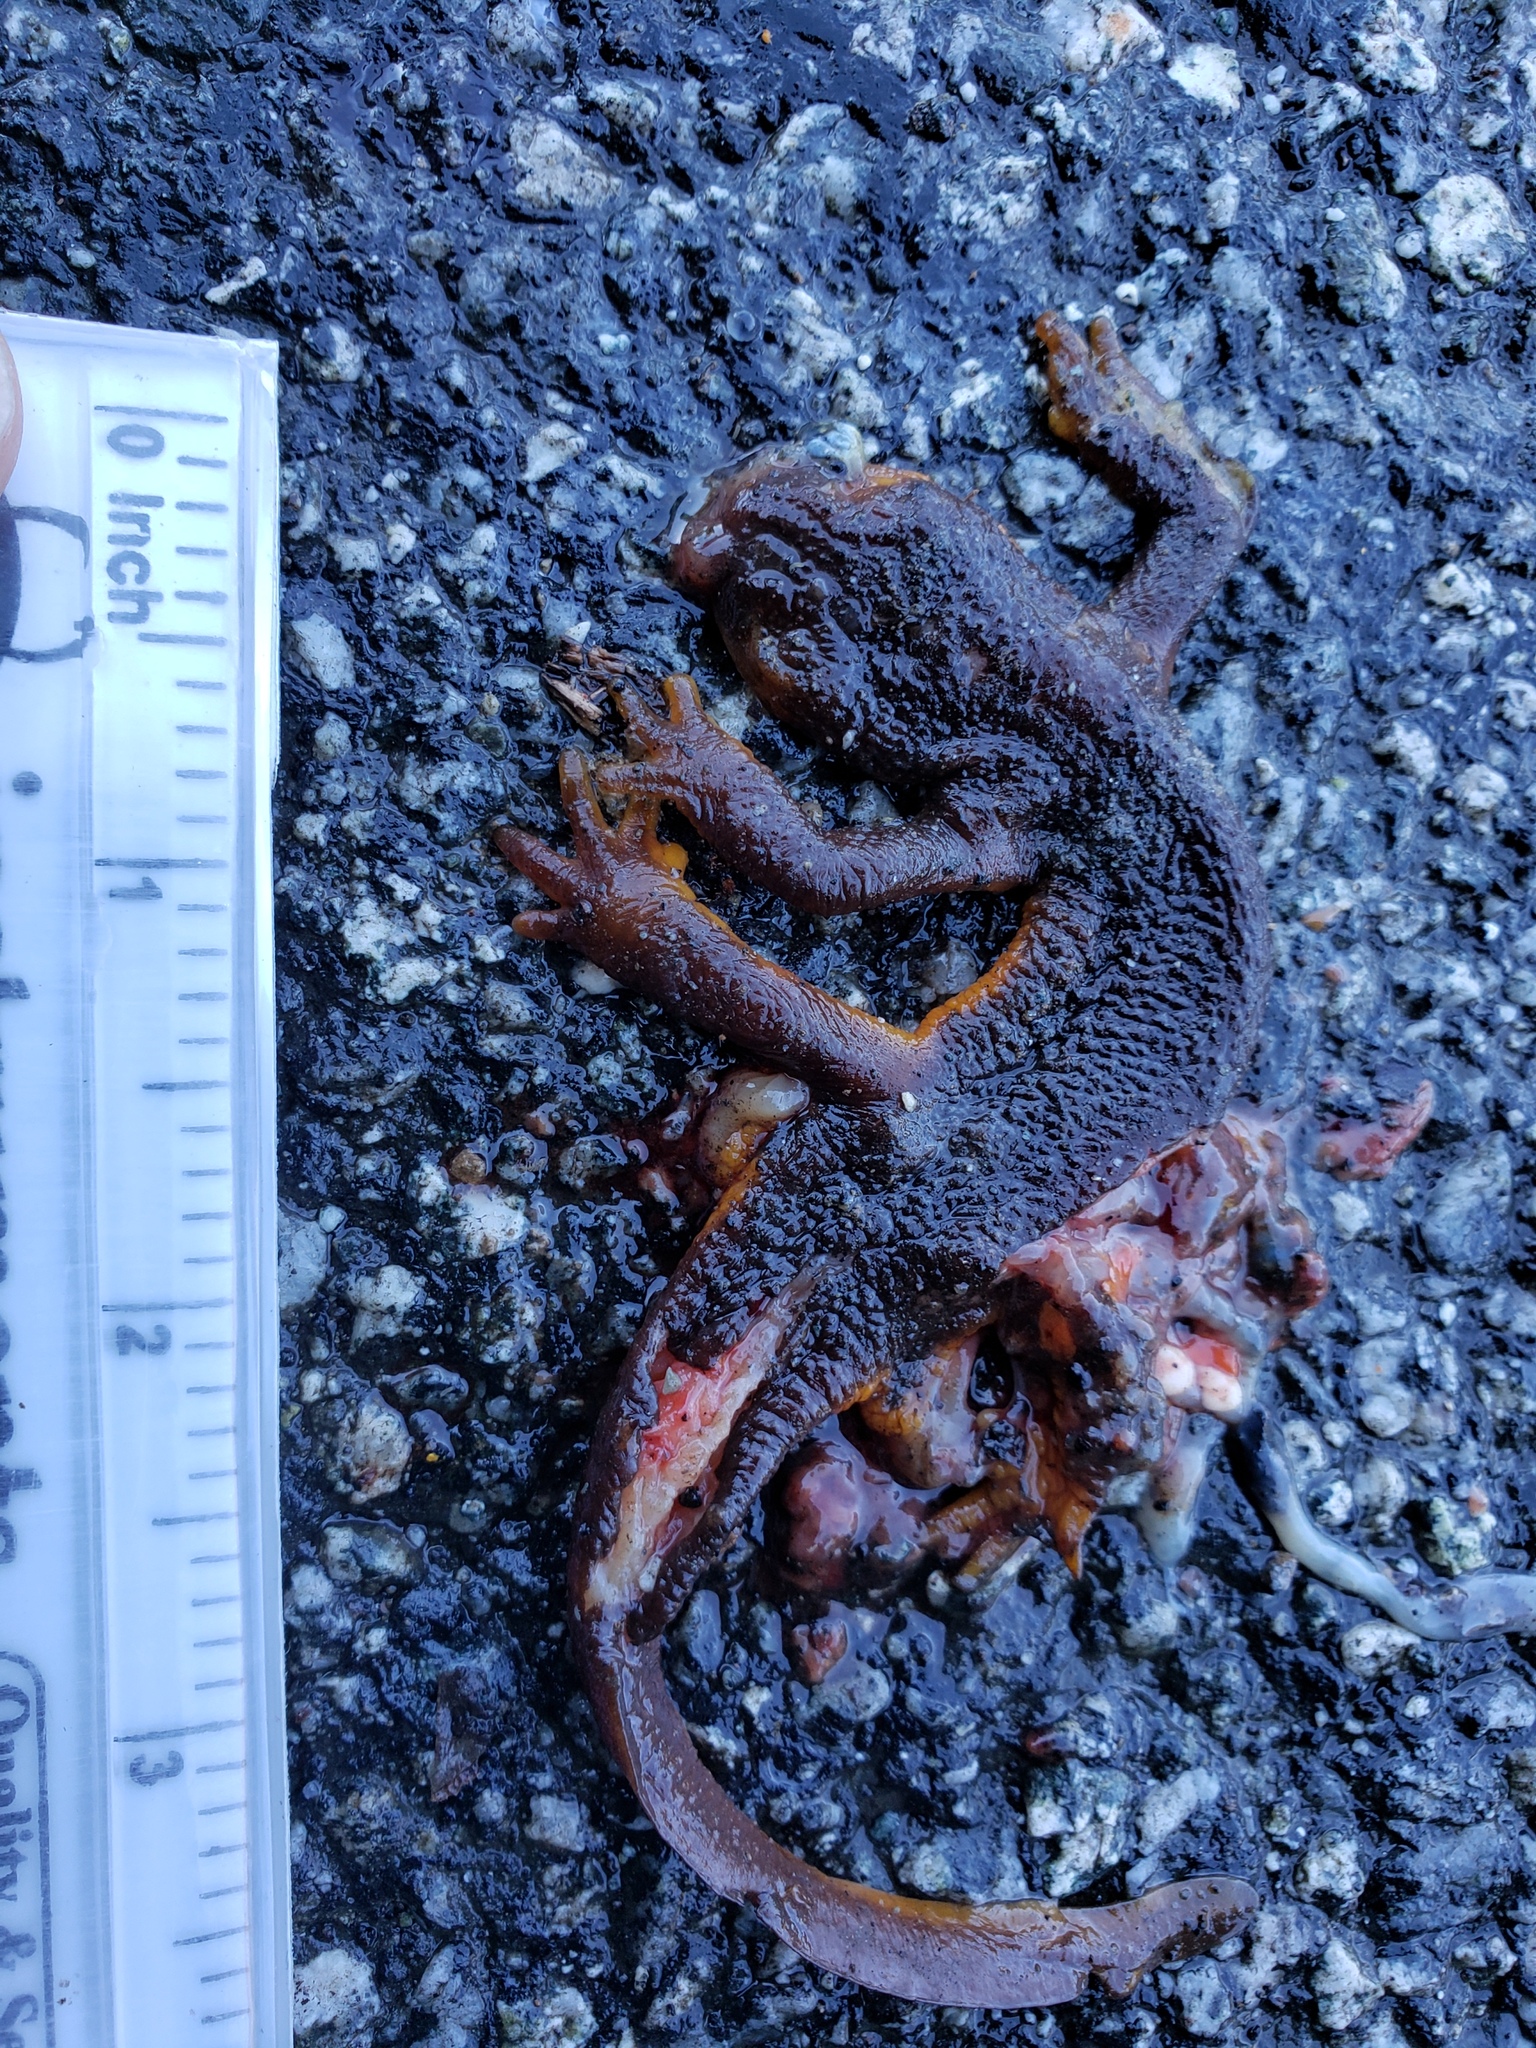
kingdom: Animalia
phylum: Chordata
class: Amphibia
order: Caudata
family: Salamandridae
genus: Taricha
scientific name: Taricha
